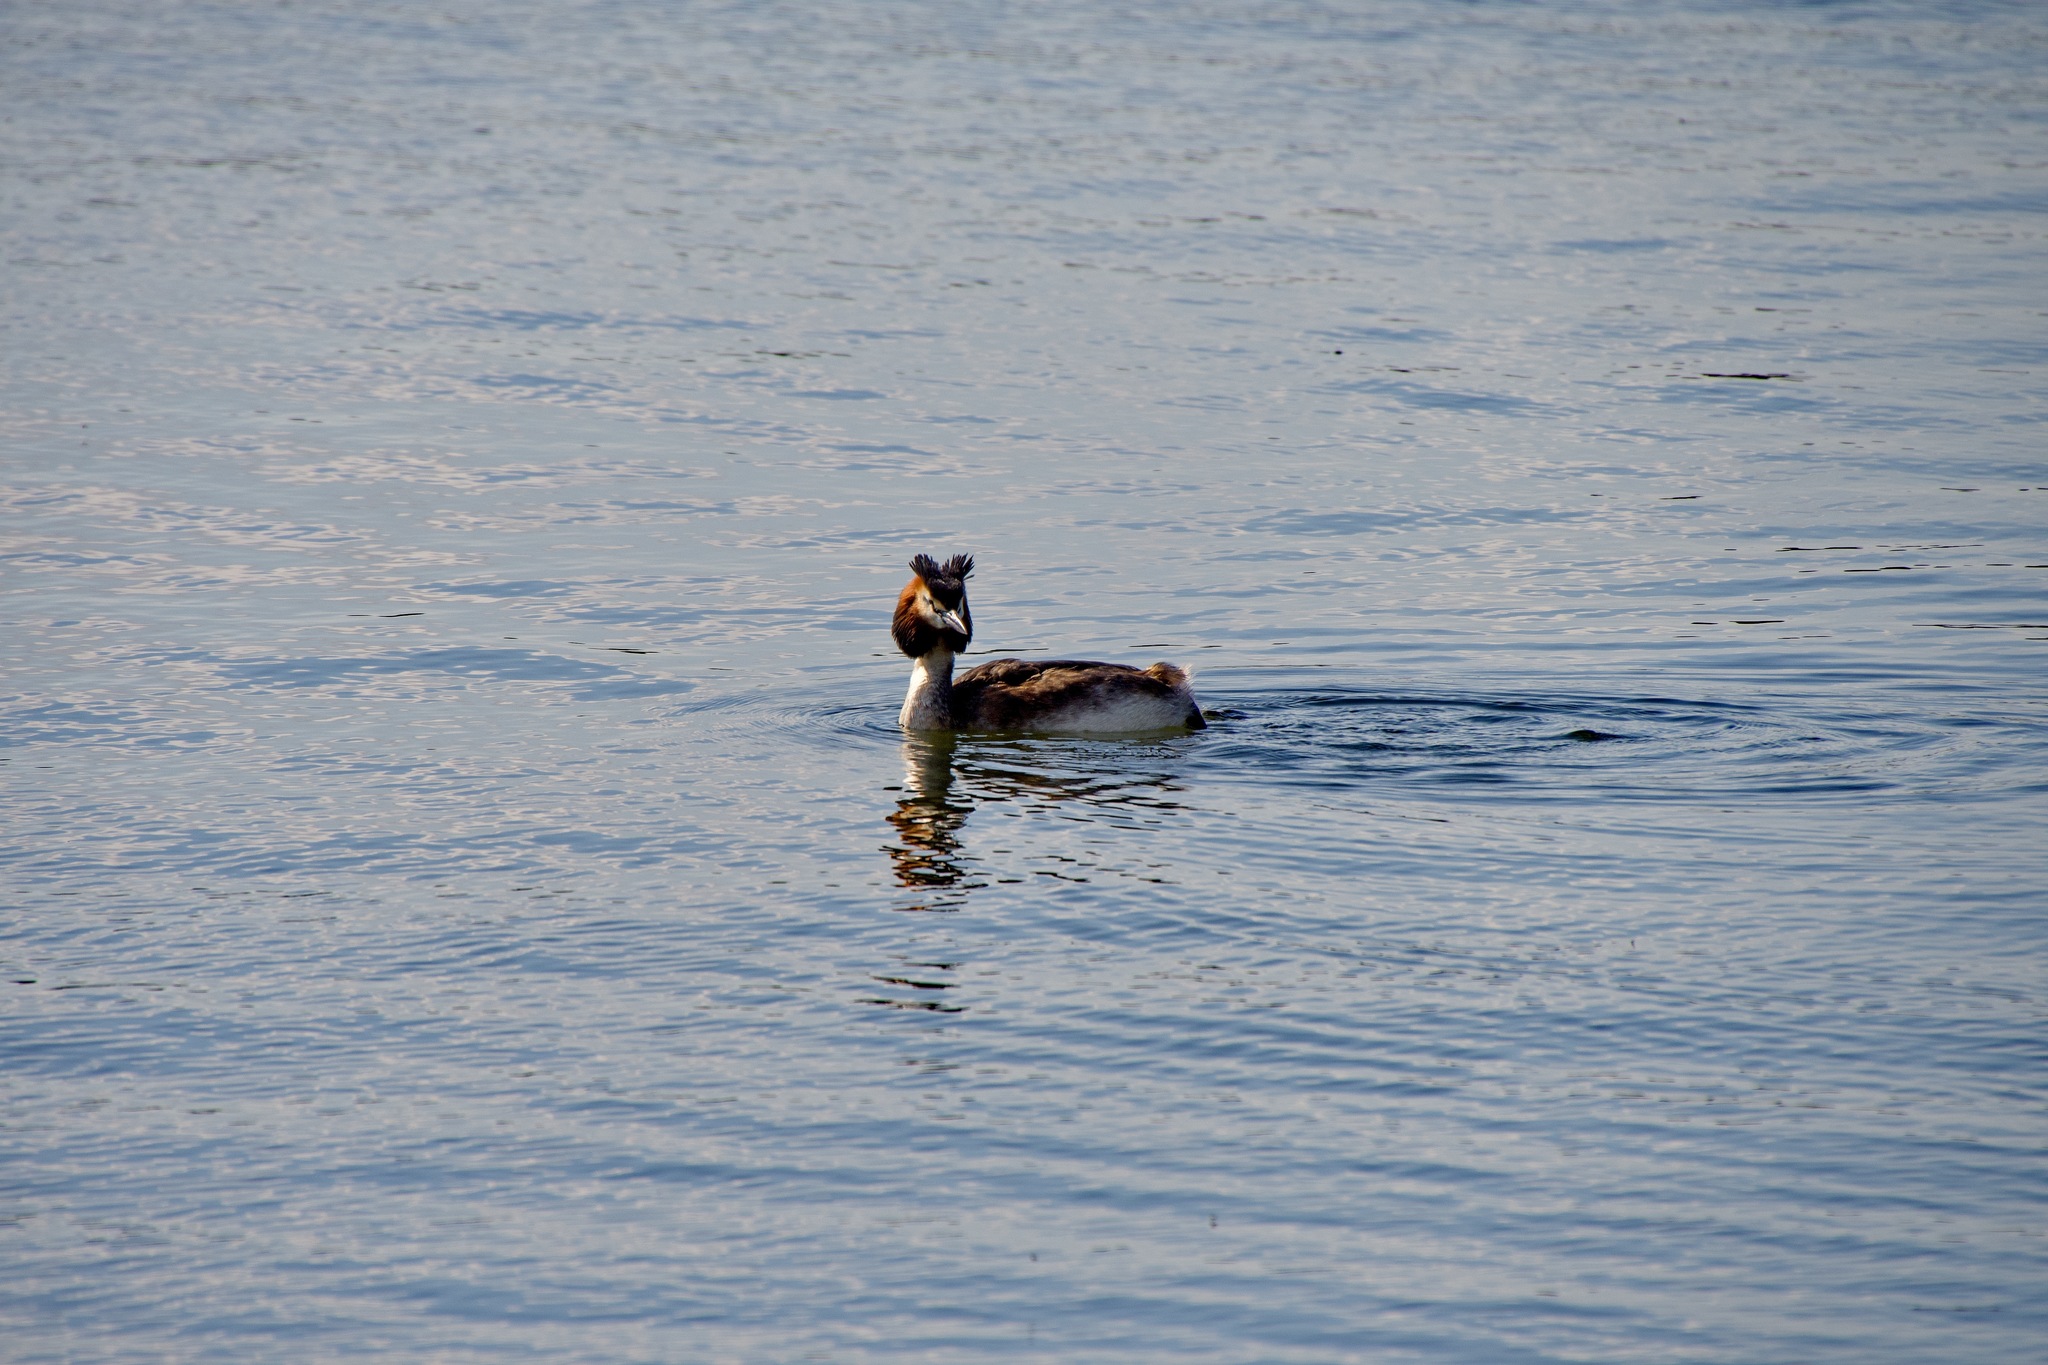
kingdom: Animalia
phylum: Chordata
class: Aves
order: Podicipediformes
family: Podicipedidae
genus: Podiceps
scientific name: Podiceps cristatus
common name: Great crested grebe
